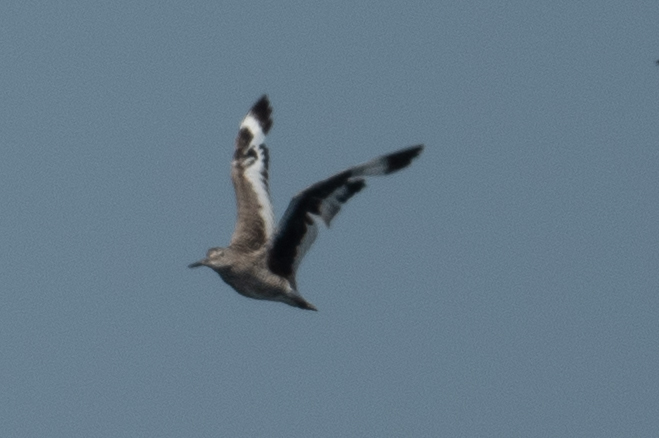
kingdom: Animalia
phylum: Chordata
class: Aves
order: Charadriiformes
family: Scolopacidae
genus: Tringa
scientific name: Tringa semipalmata
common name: Willet
